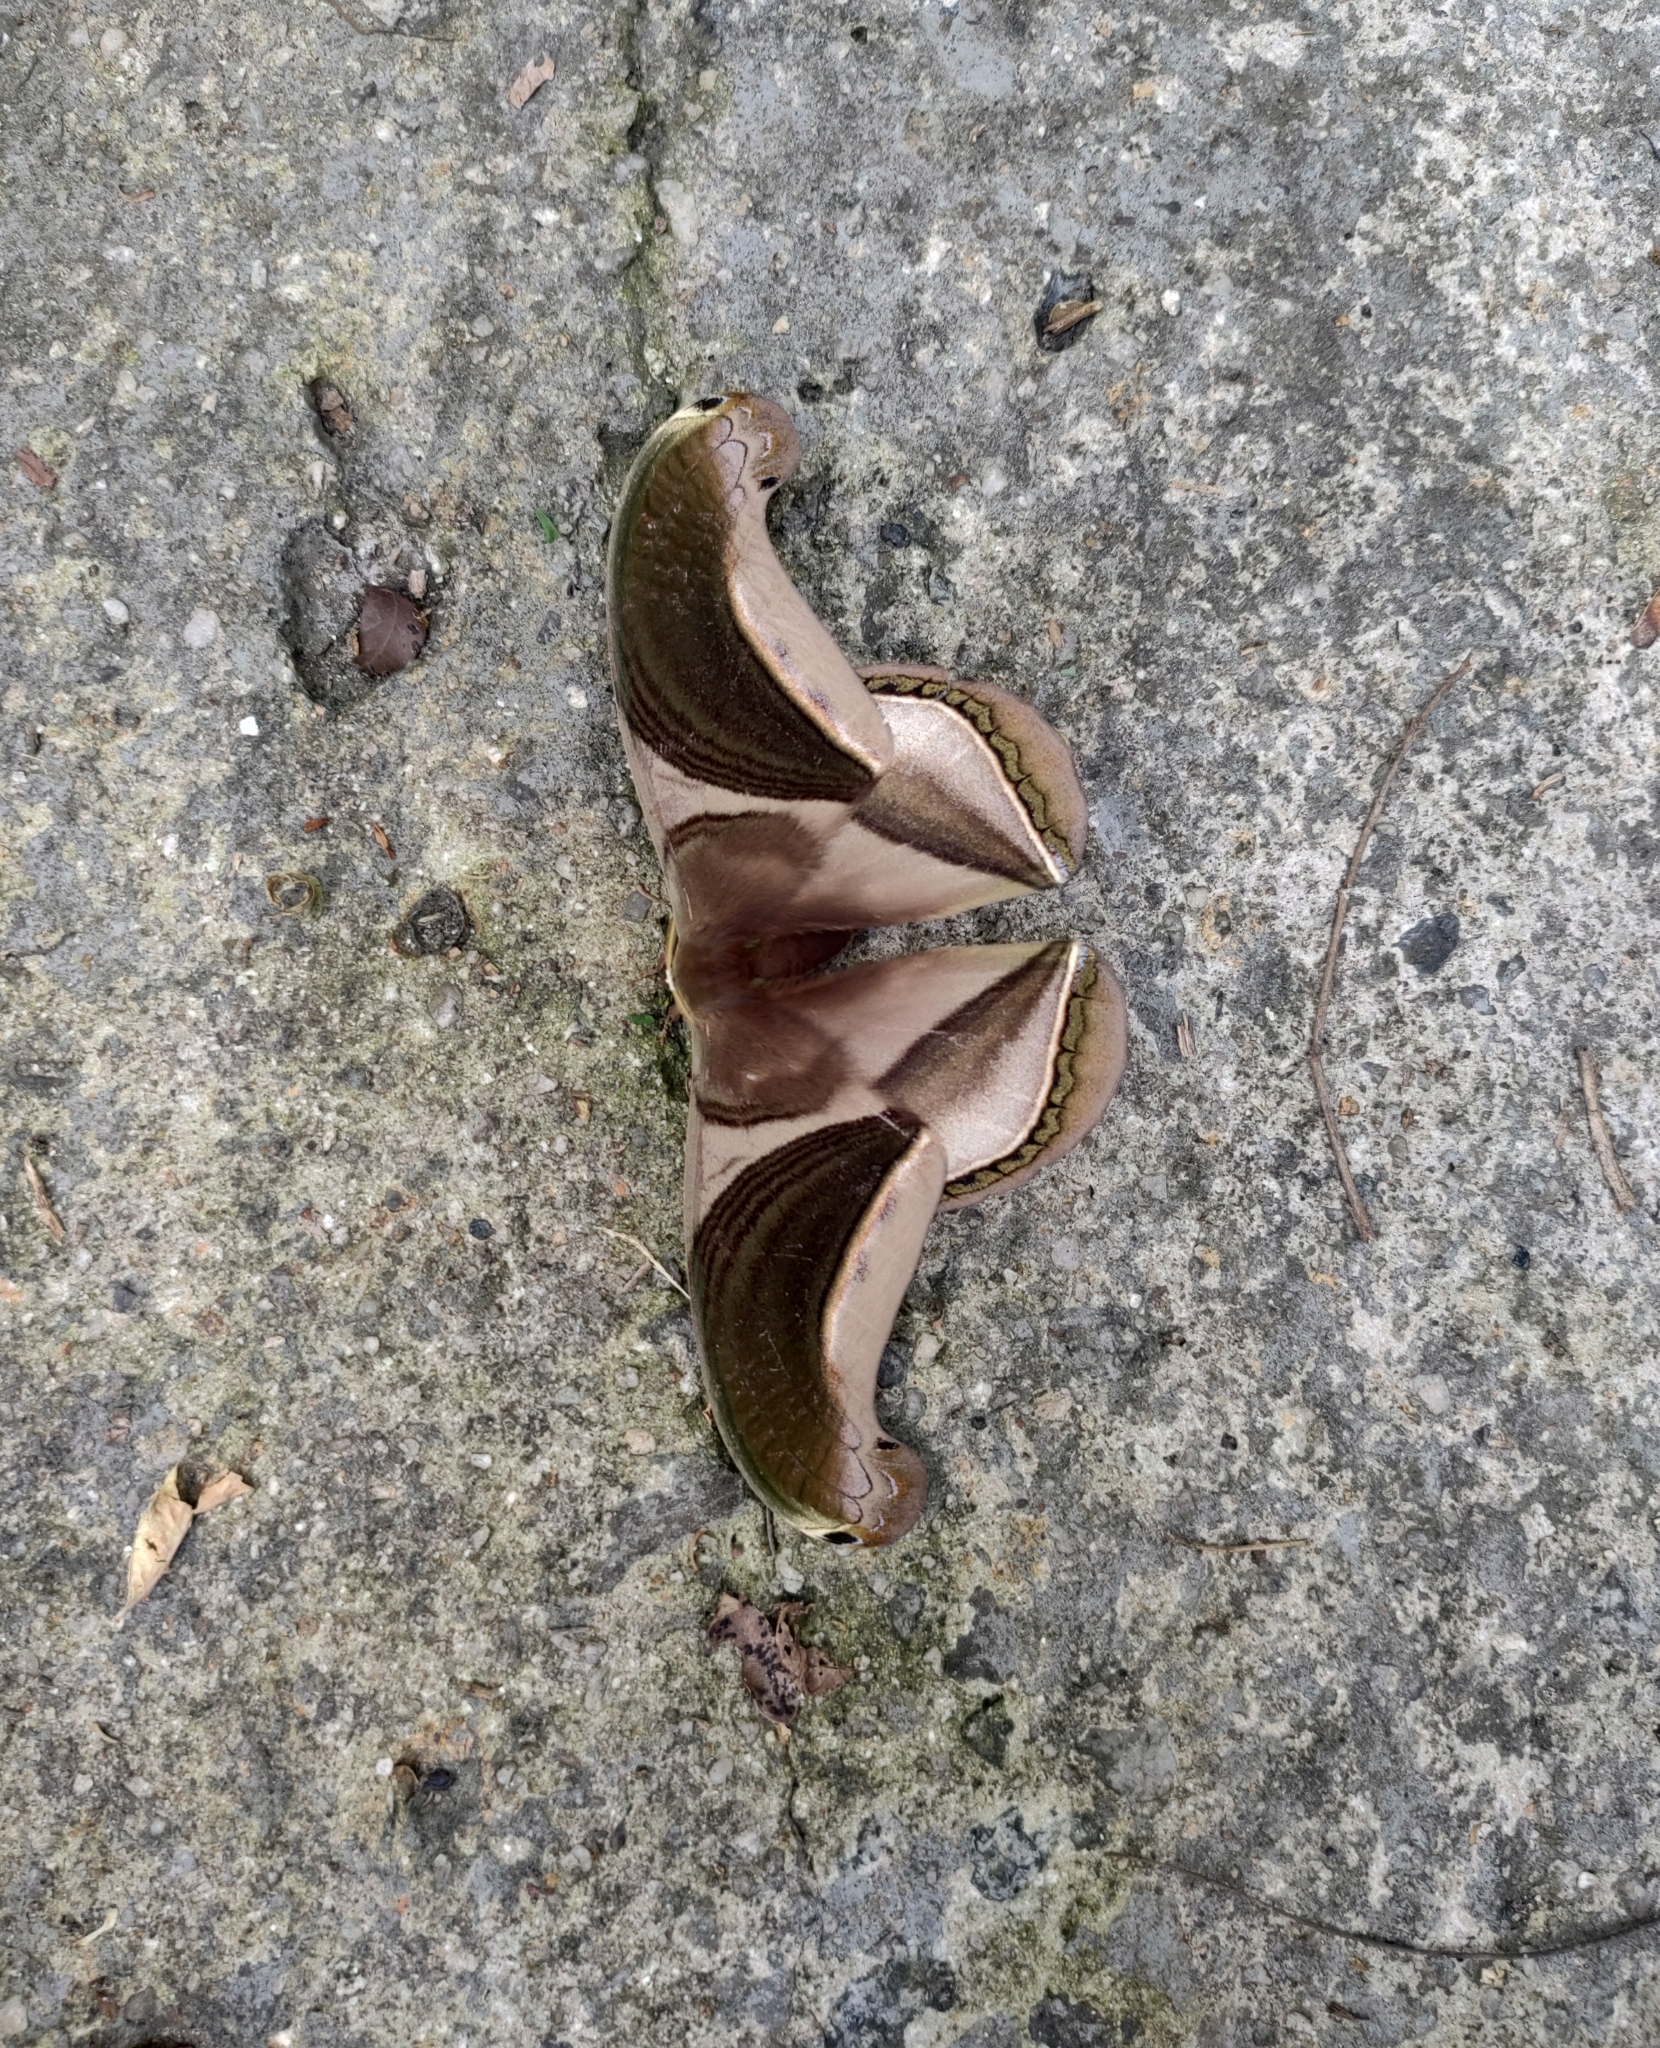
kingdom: Animalia
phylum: Arthropoda
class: Insecta
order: Lepidoptera
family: Saturniidae
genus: Rhescyntis
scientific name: Rhescyntis pseudomartii
